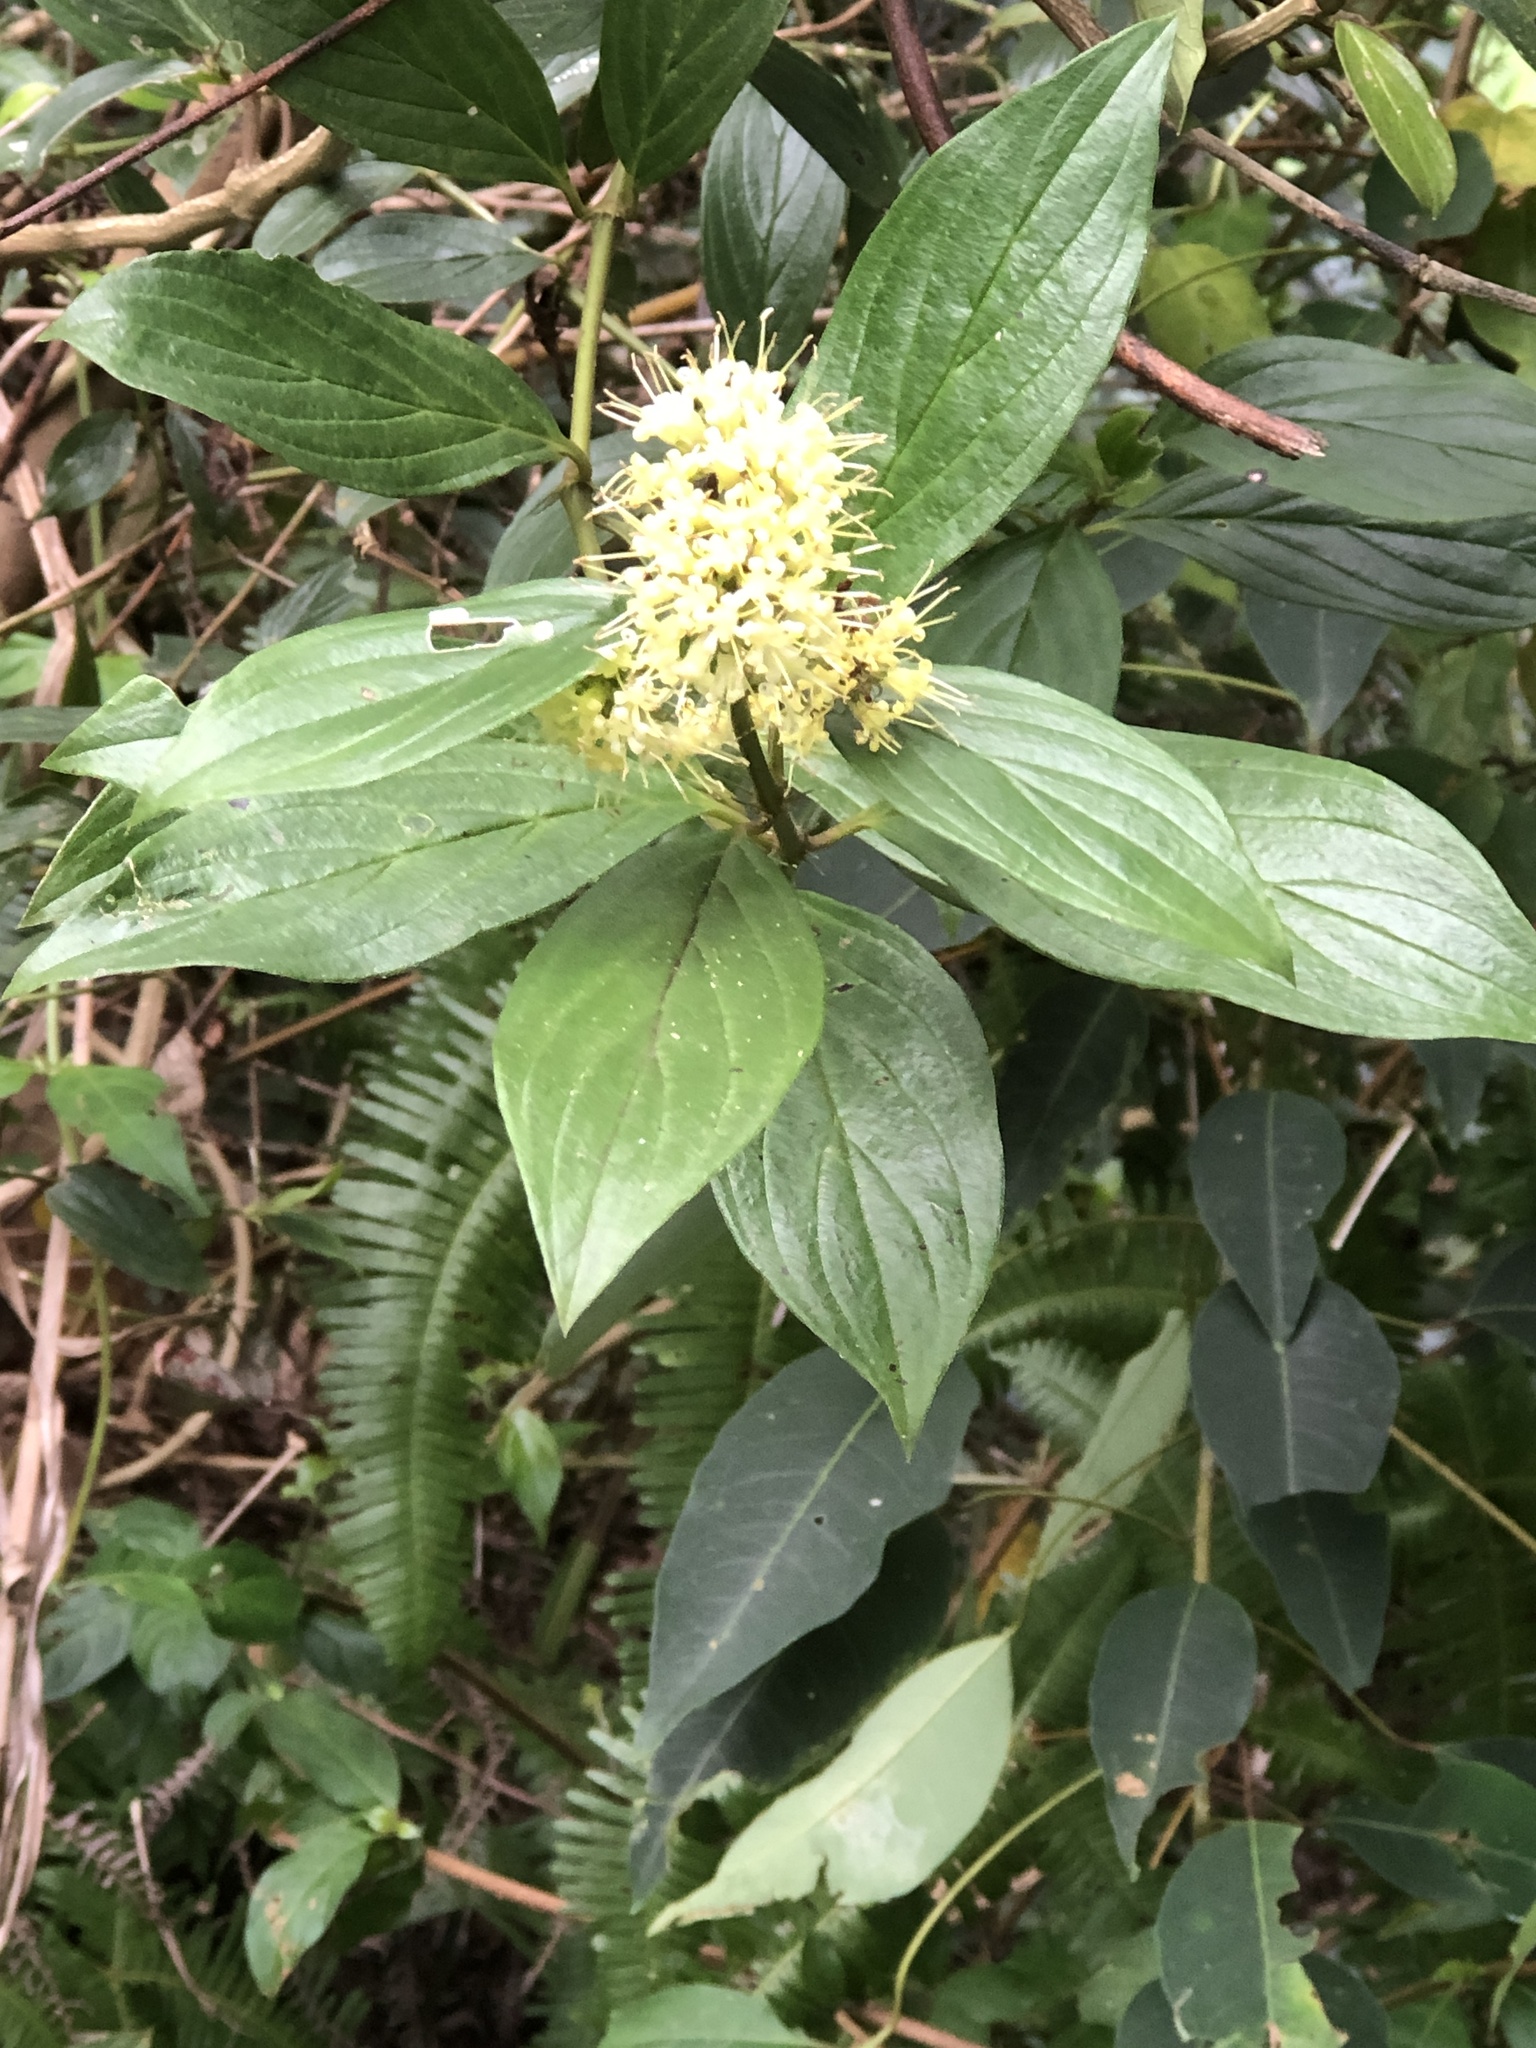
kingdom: Plantae
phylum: Tracheophyta
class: Magnoliopsida
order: Gentianales
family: Rubiaceae
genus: Dimetia
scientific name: Dimetia hedyotidea
